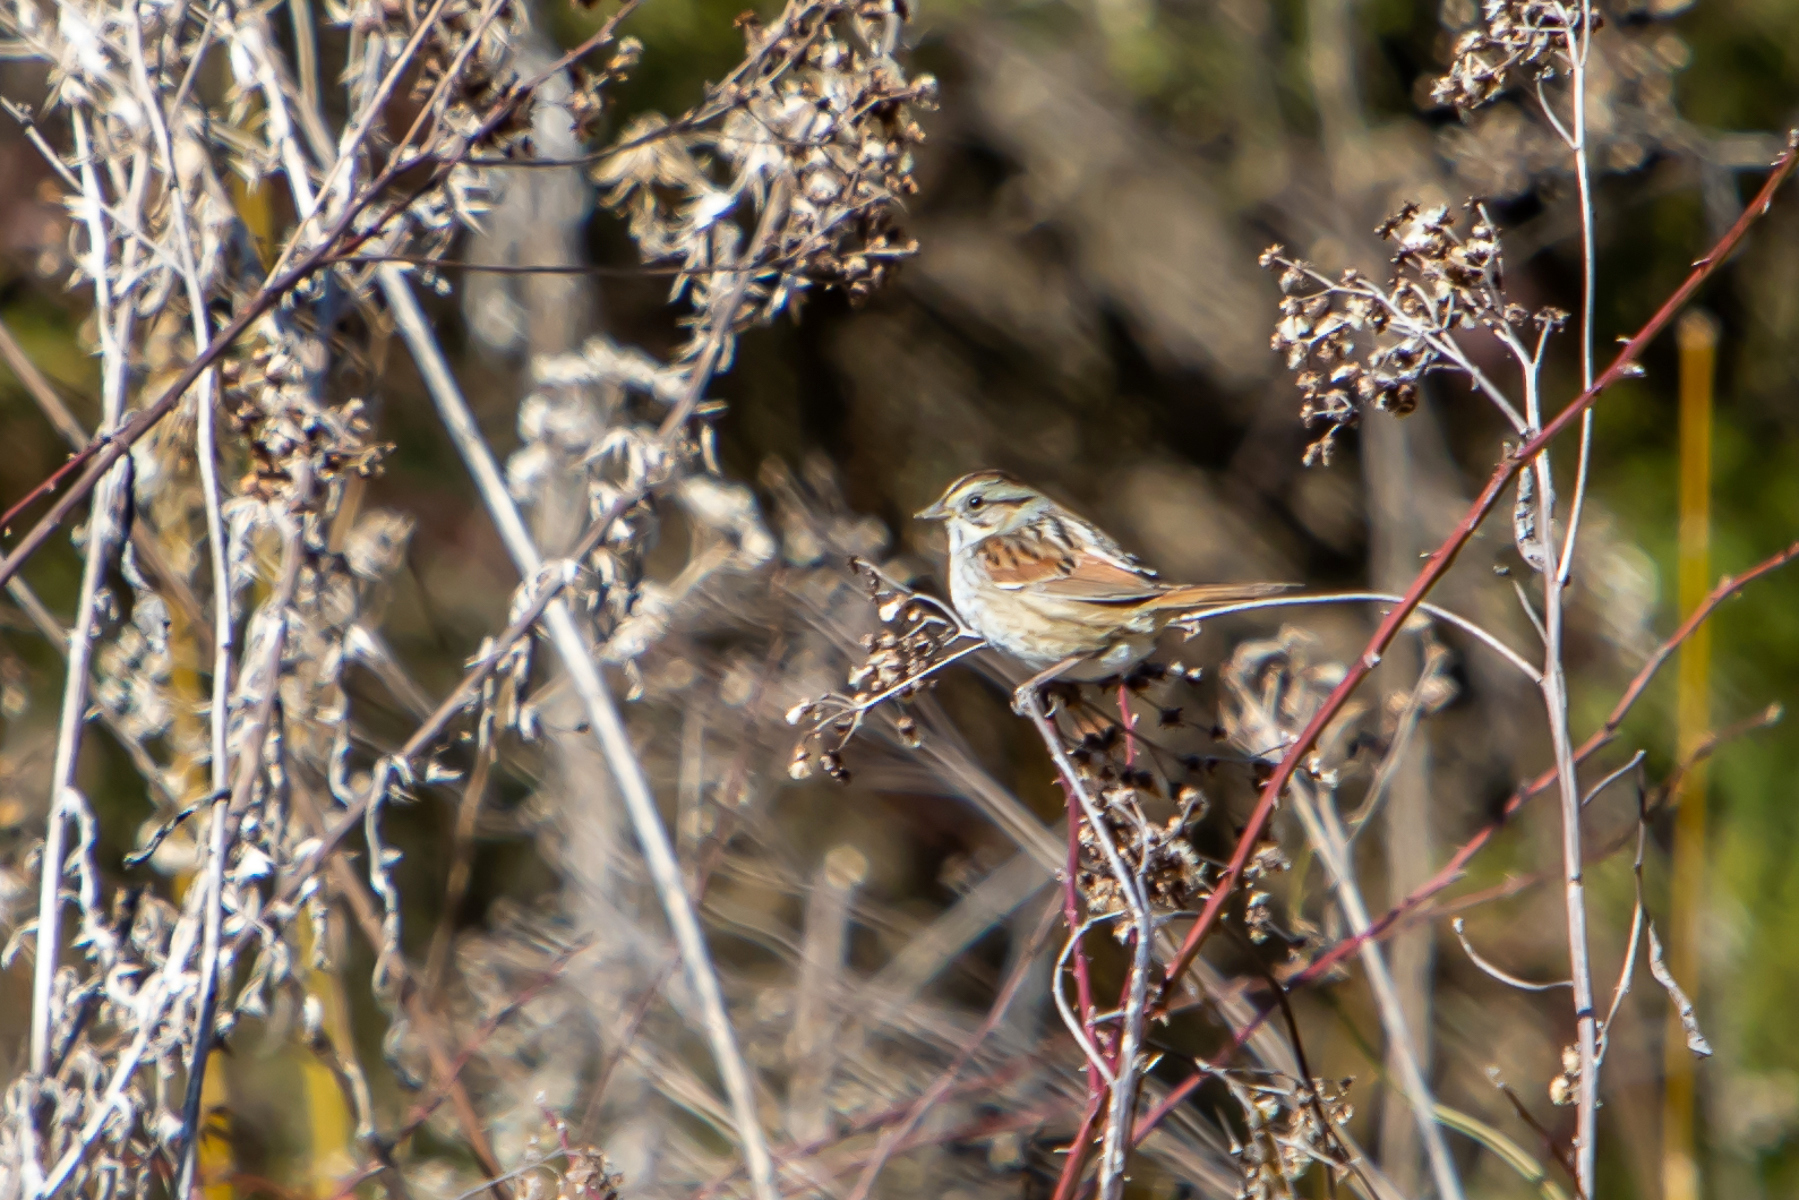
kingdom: Animalia
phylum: Chordata
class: Aves
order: Passeriformes
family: Passerellidae
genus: Melospiza
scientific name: Melospiza georgiana
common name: Swamp sparrow
